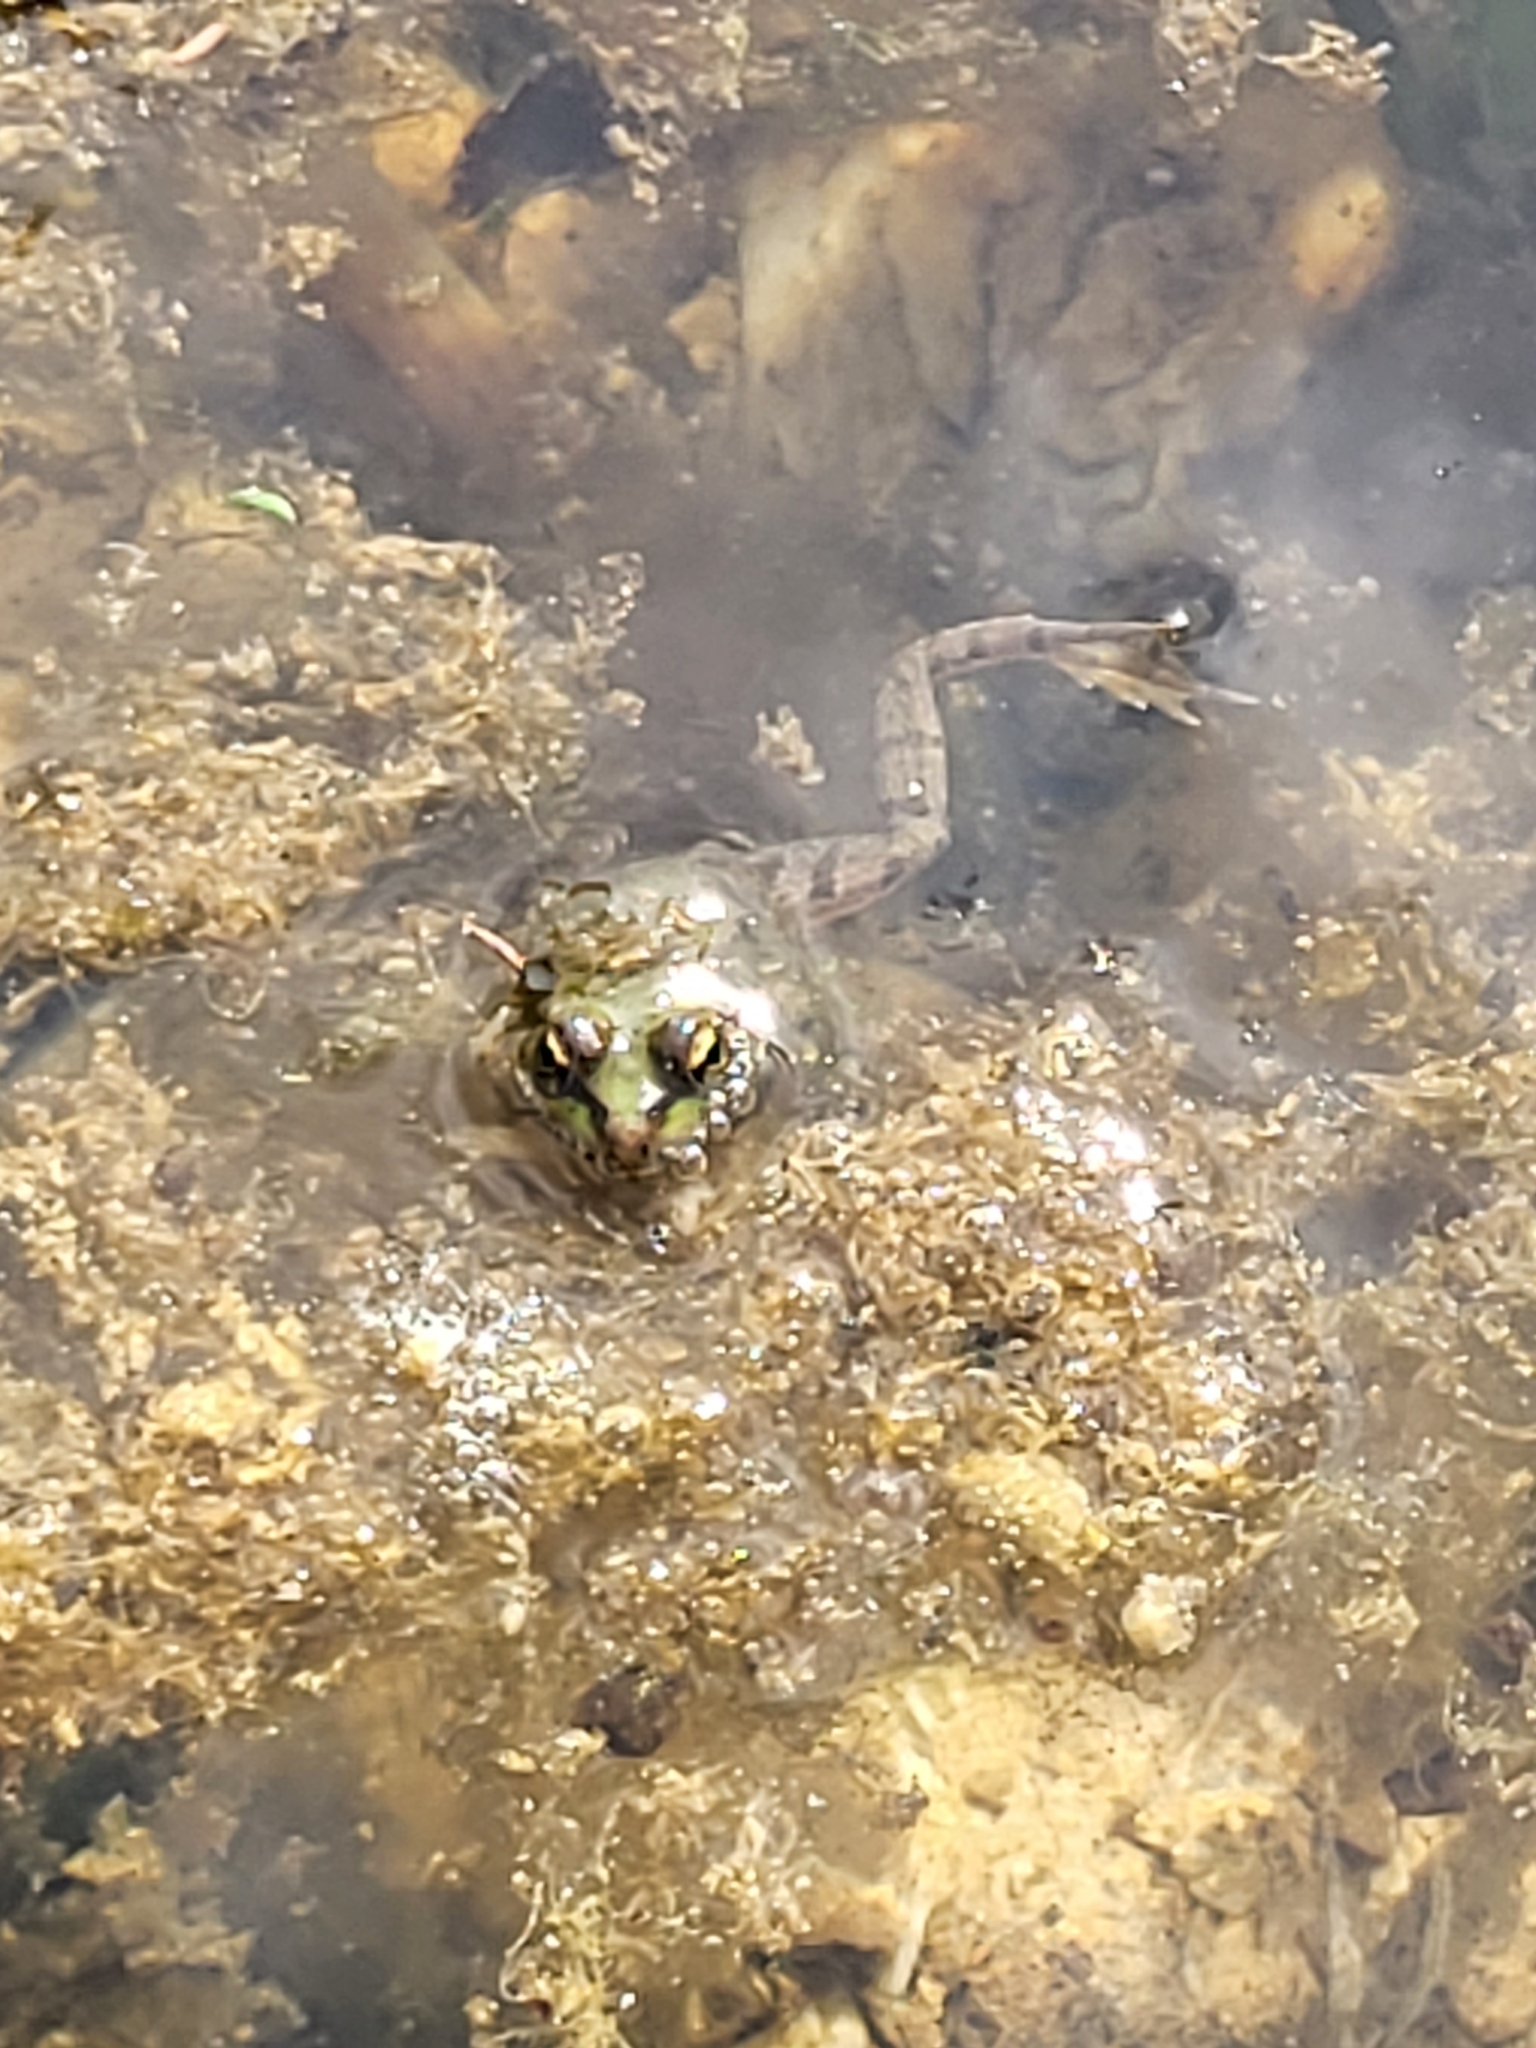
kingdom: Animalia
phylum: Chordata
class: Amphibia
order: Anura
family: Ranidae
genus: Pelophylax
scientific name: Pelophylax
